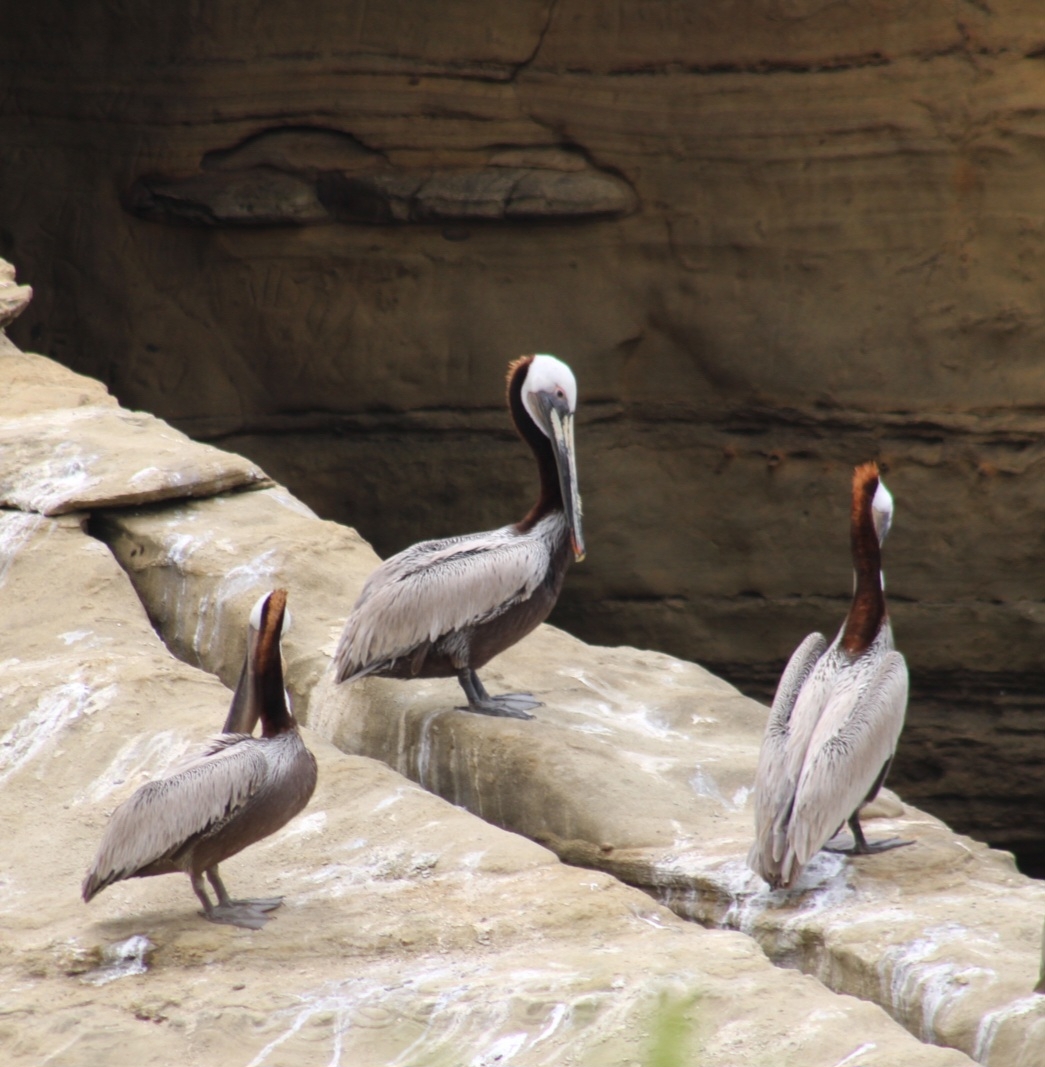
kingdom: Animalia
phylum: Chordata
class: Aves
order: Pelecaniformes
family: Pelecanidae
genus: Pelecanus
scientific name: Pelecanus occidentalis
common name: Brown pelican
